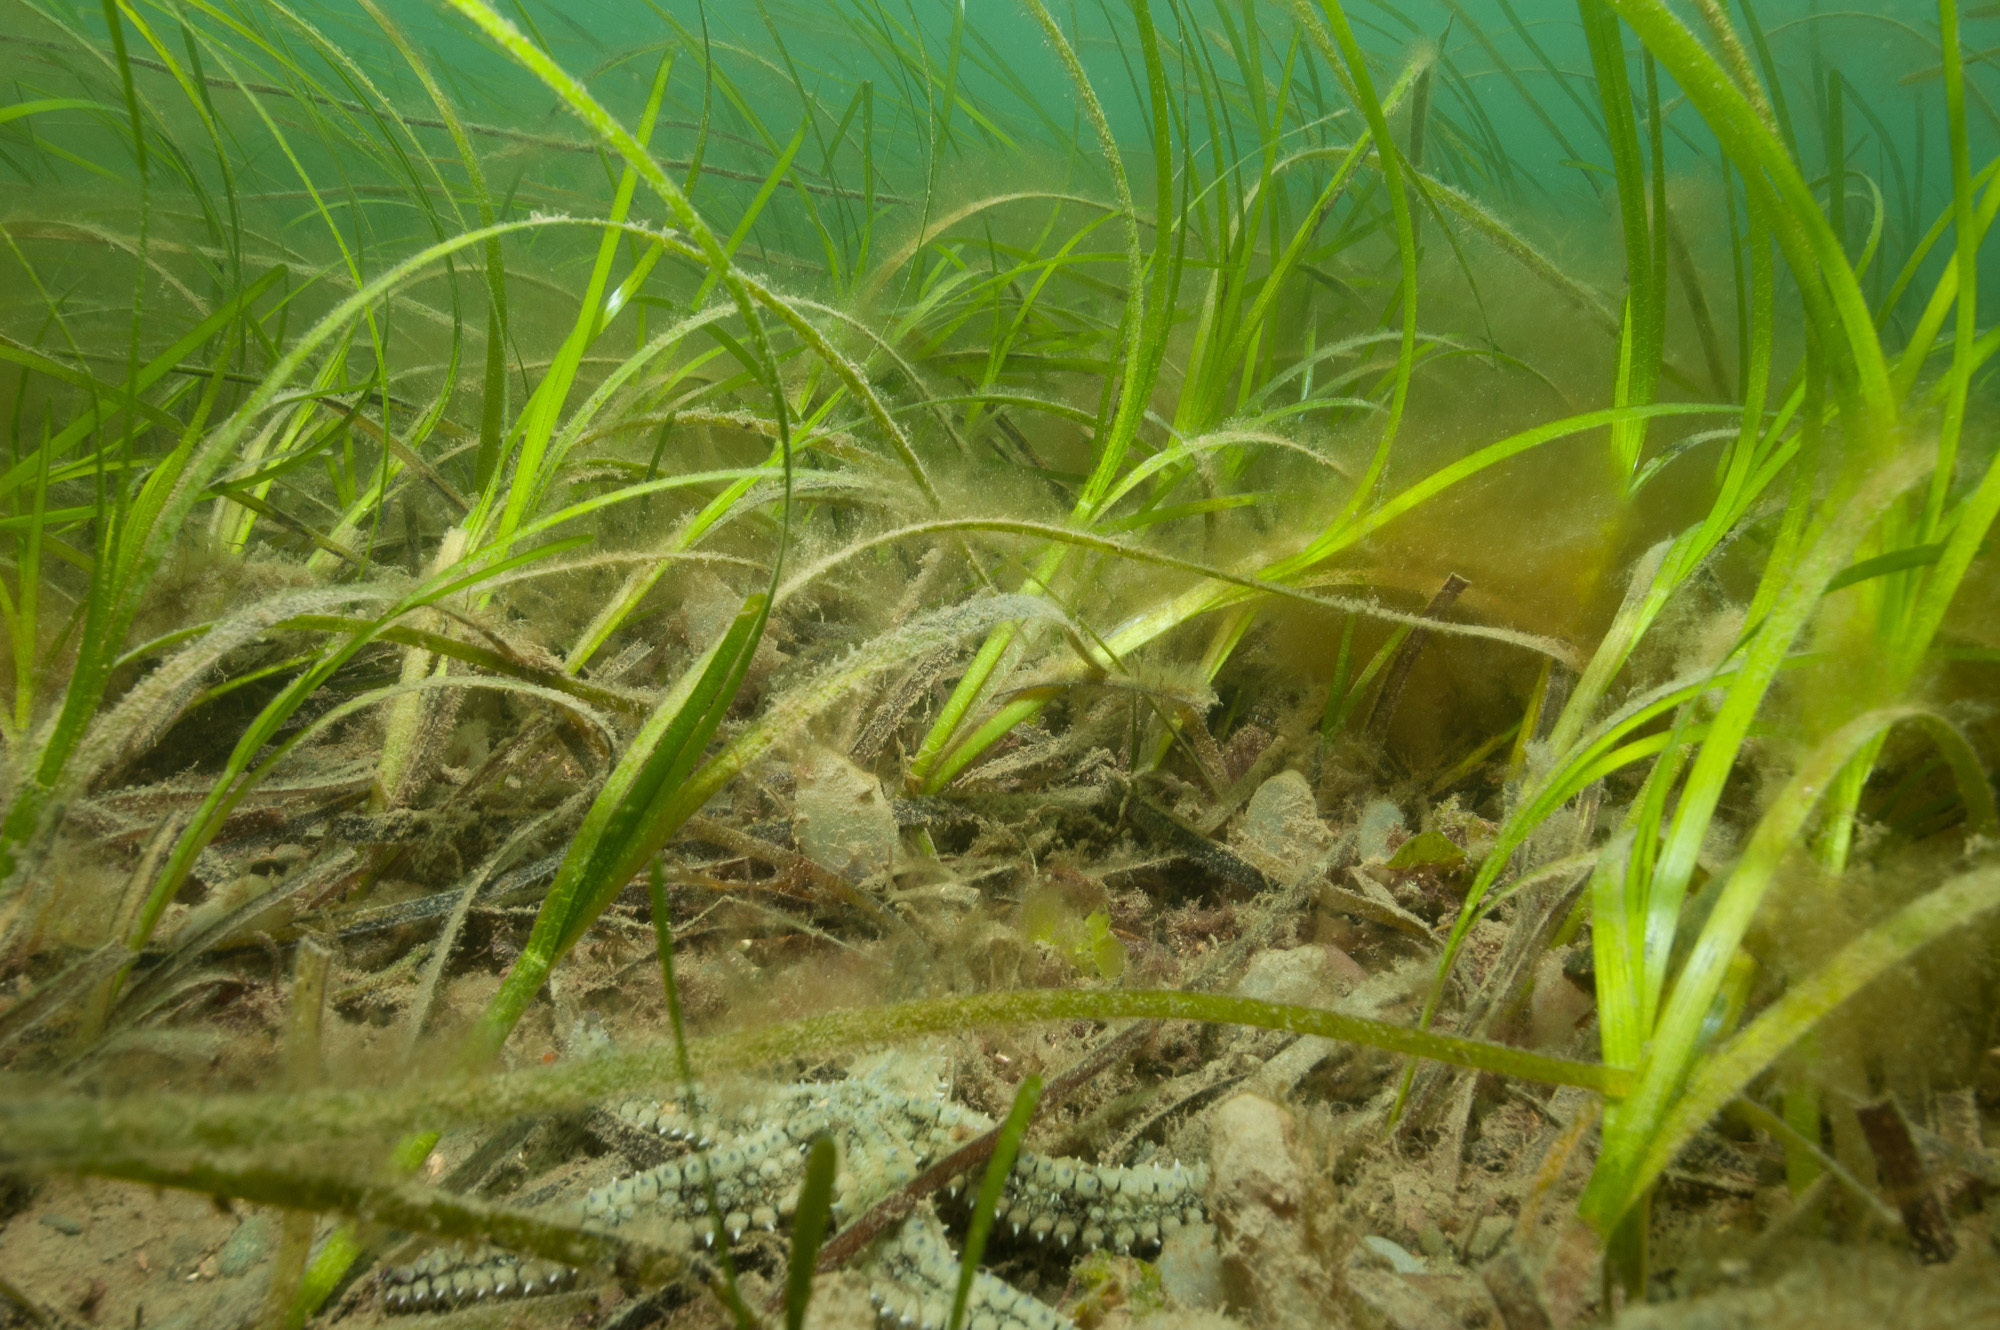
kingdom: Plantae
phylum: Tracheophyta
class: Liliopsida
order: Alismatales
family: Zosteraceae
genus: Zostera
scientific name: Zostera marina
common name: Eelgrass
